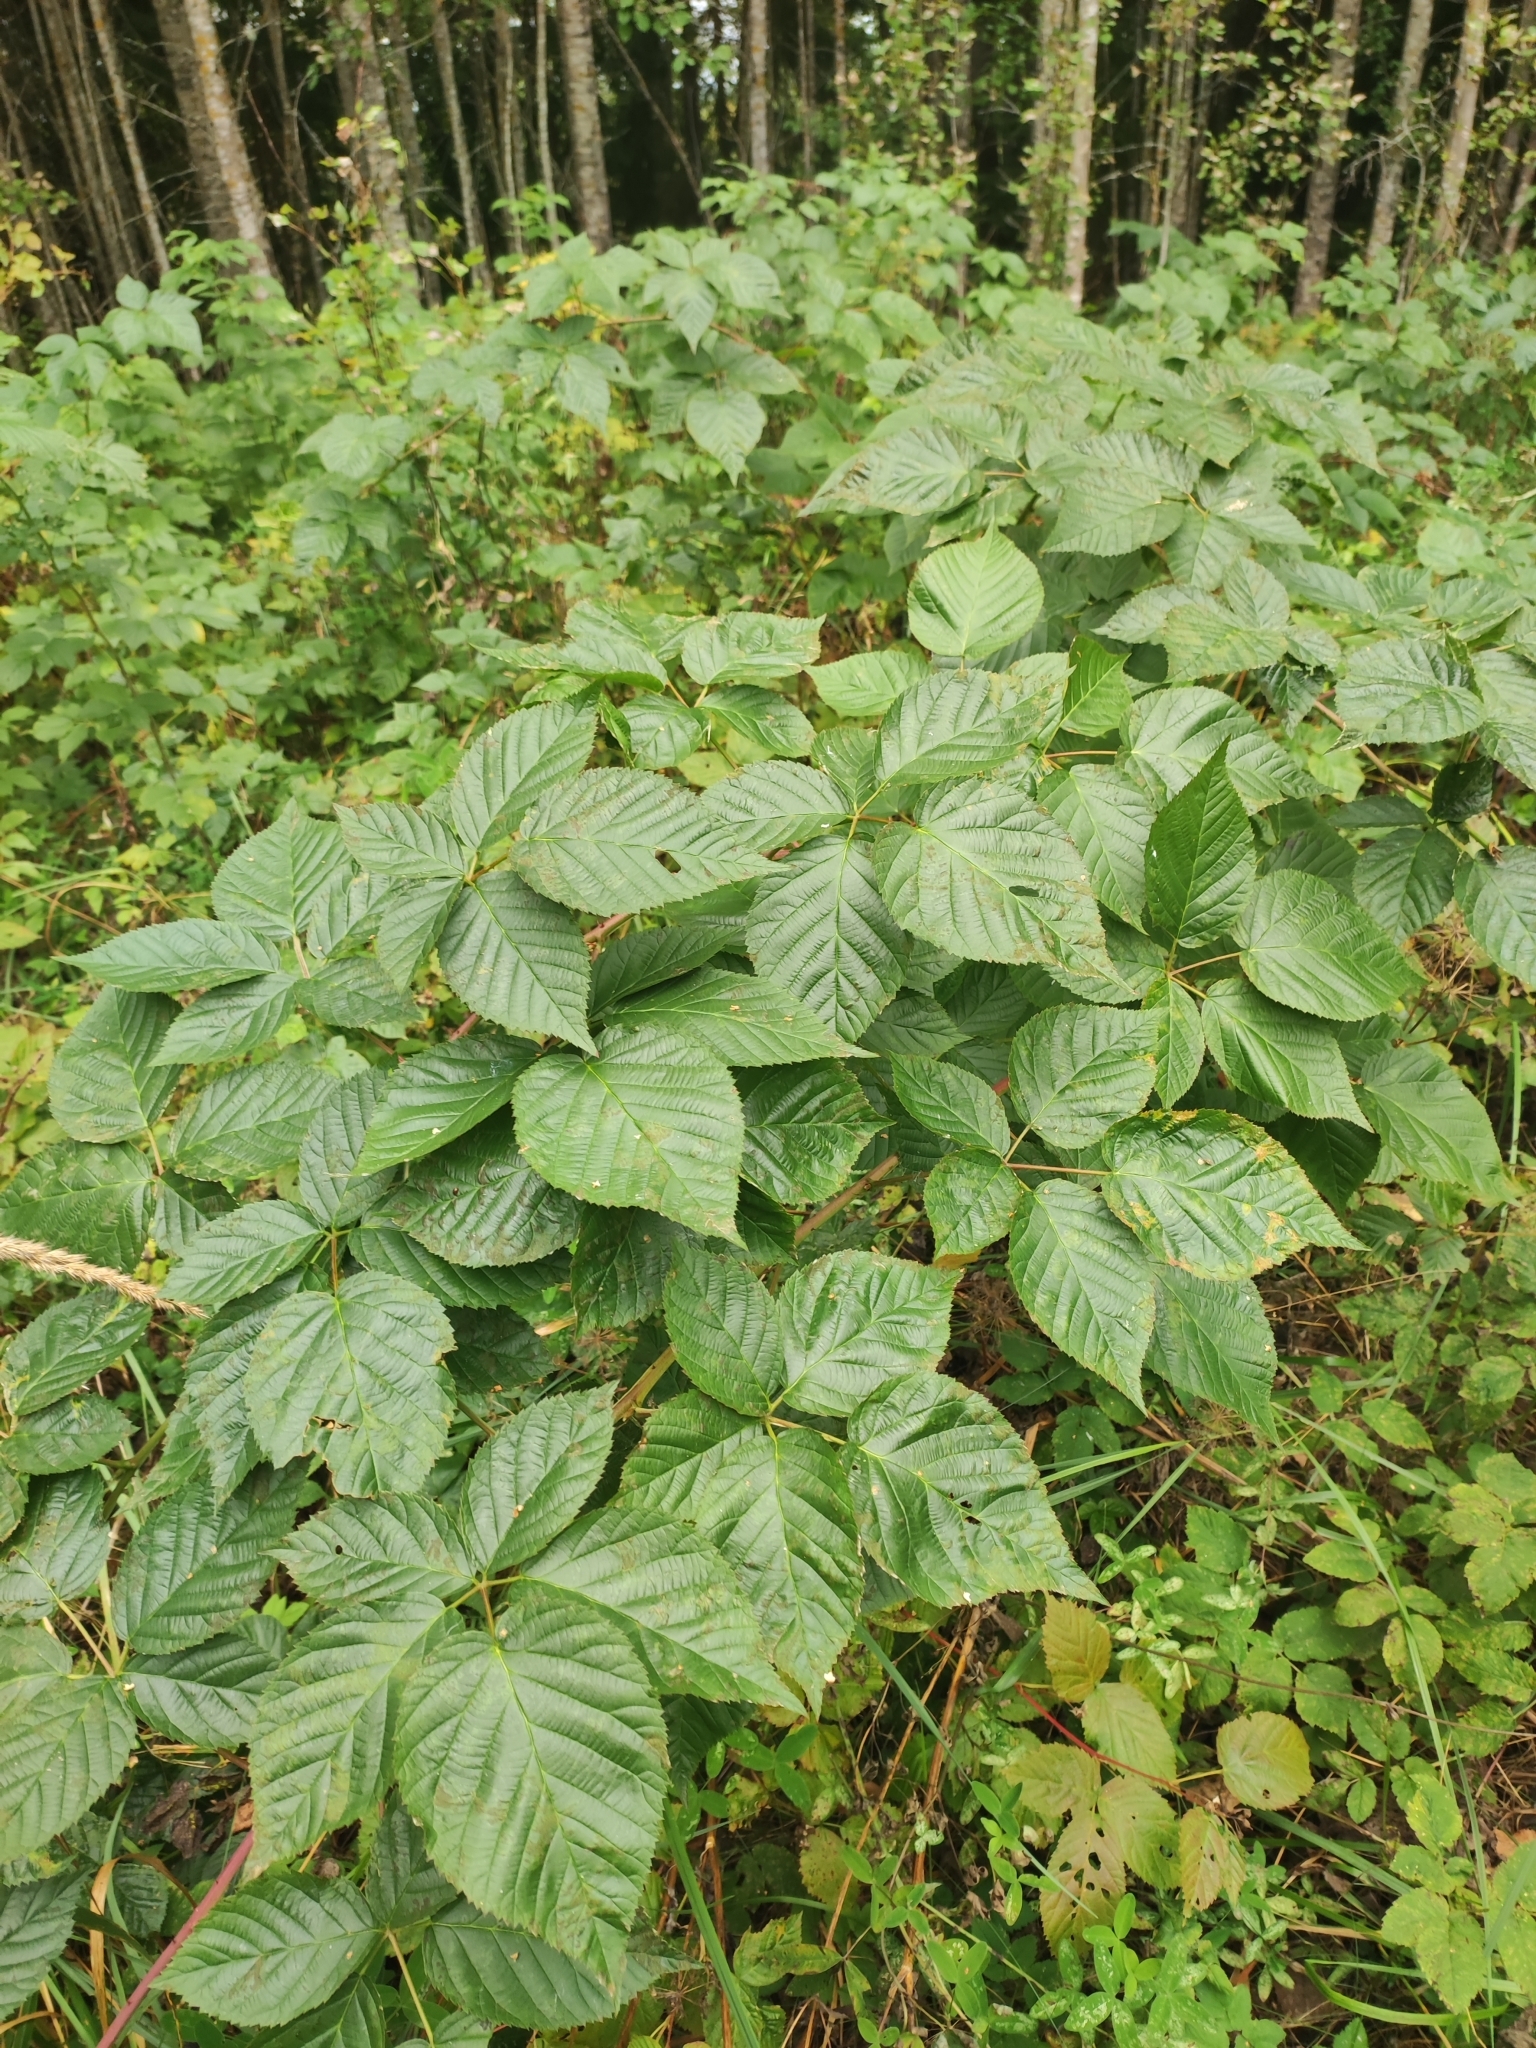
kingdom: Plantae
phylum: Tracheophyta
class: Magnoliopsida
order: Rosales
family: Rosaceae
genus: Rubus
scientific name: Rubus polonicus
